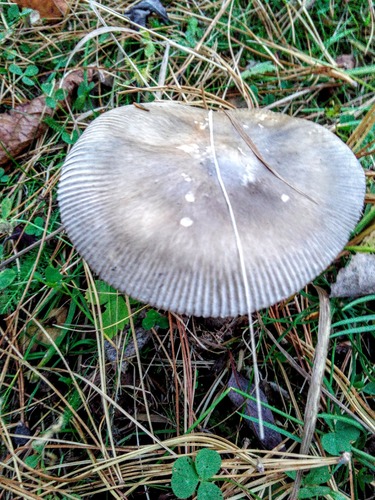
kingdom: Fungi
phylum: Basidiomycota
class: Agaricomycetes
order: Agaricales
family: Amanitaceae
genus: Amanita
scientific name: Amanita
